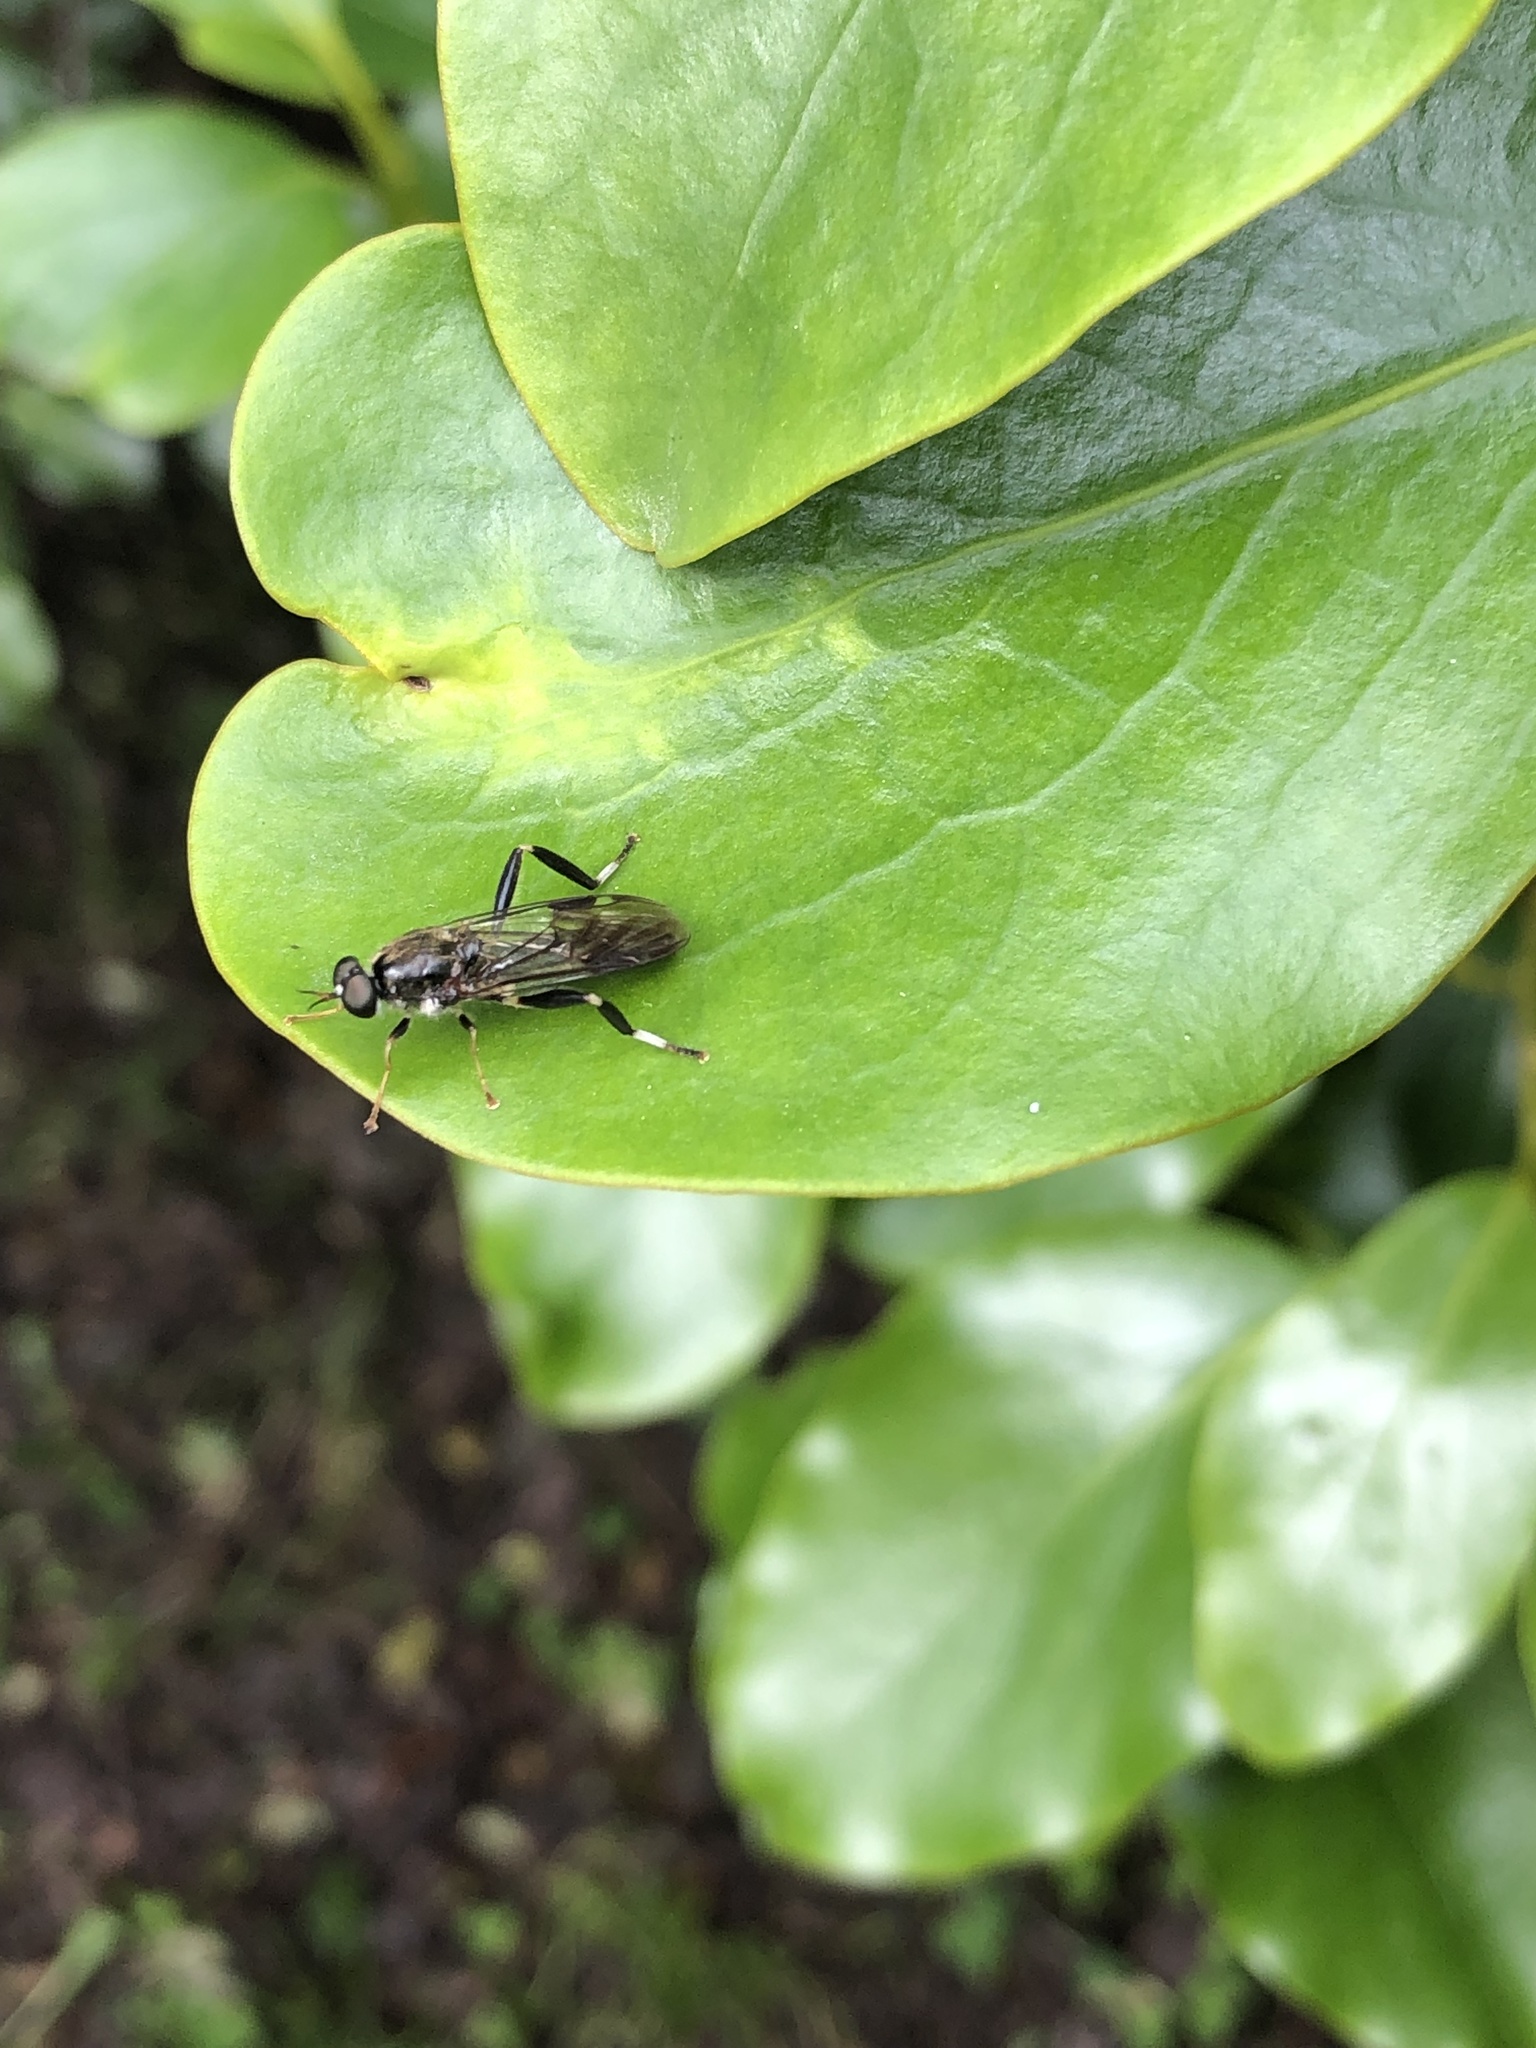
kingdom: Animalia
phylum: Arthropoda
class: Insecta
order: Diptera
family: Stratiomyidae
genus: Exaireta
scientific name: Exaireta spinigera
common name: Blue soldier fly
